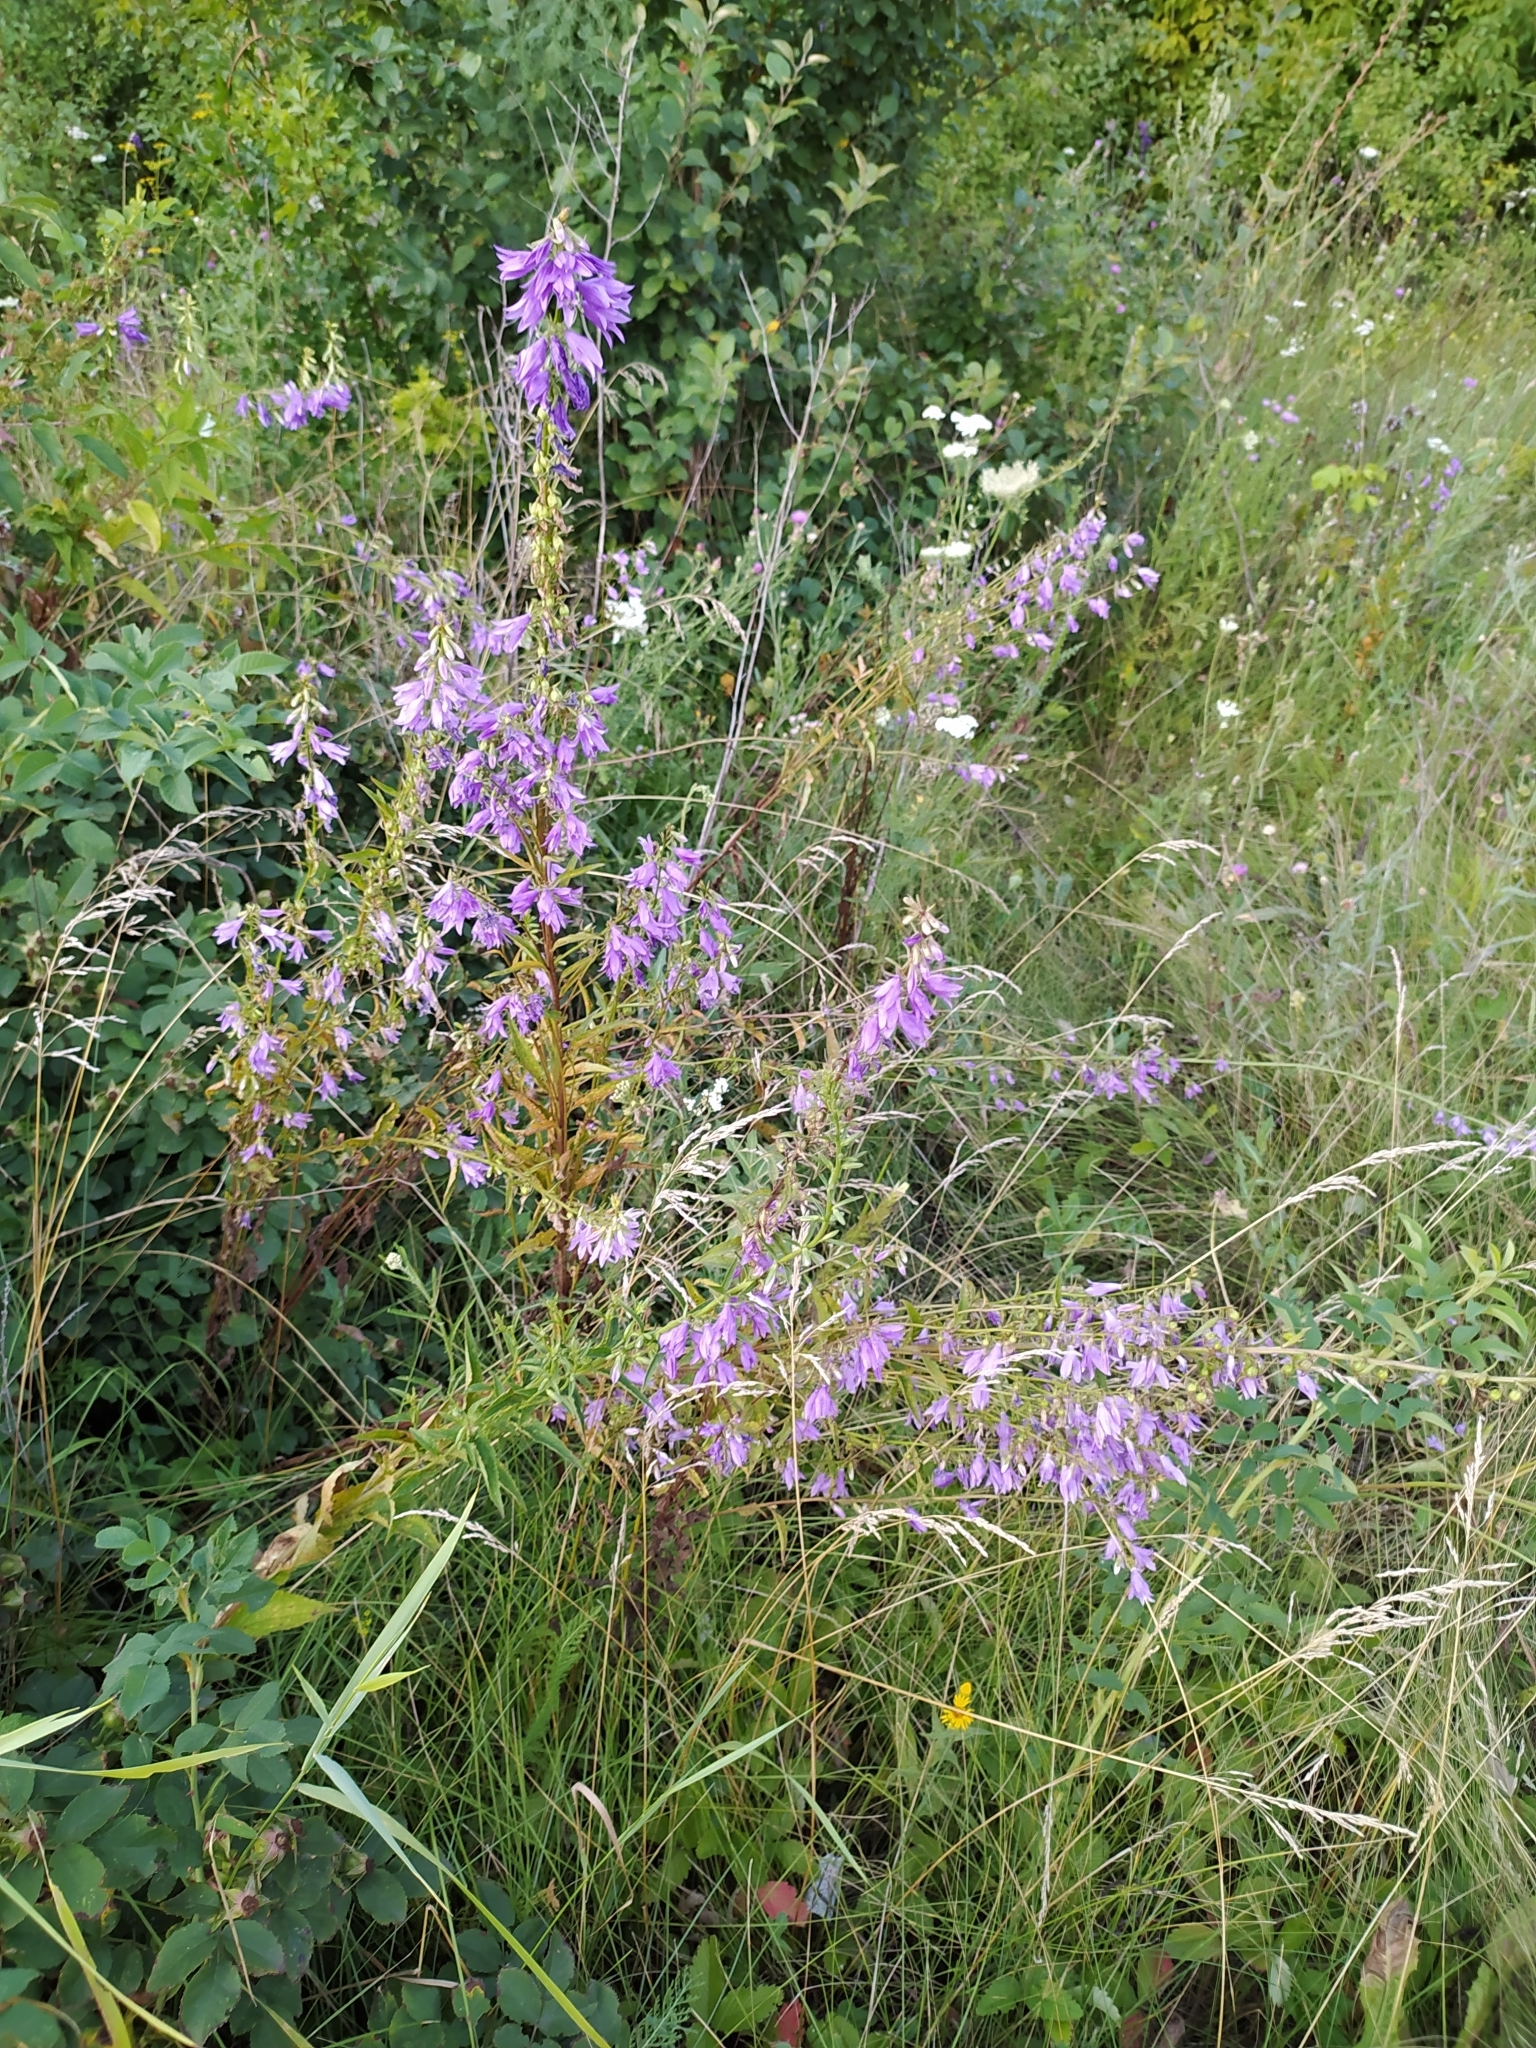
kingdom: Plantae
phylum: Tracheophyta
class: Magnoliopsida
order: Asterales
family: Campanulaceae
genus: Campanula
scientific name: Campanula rapunculoides
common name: Creeping bellflower
